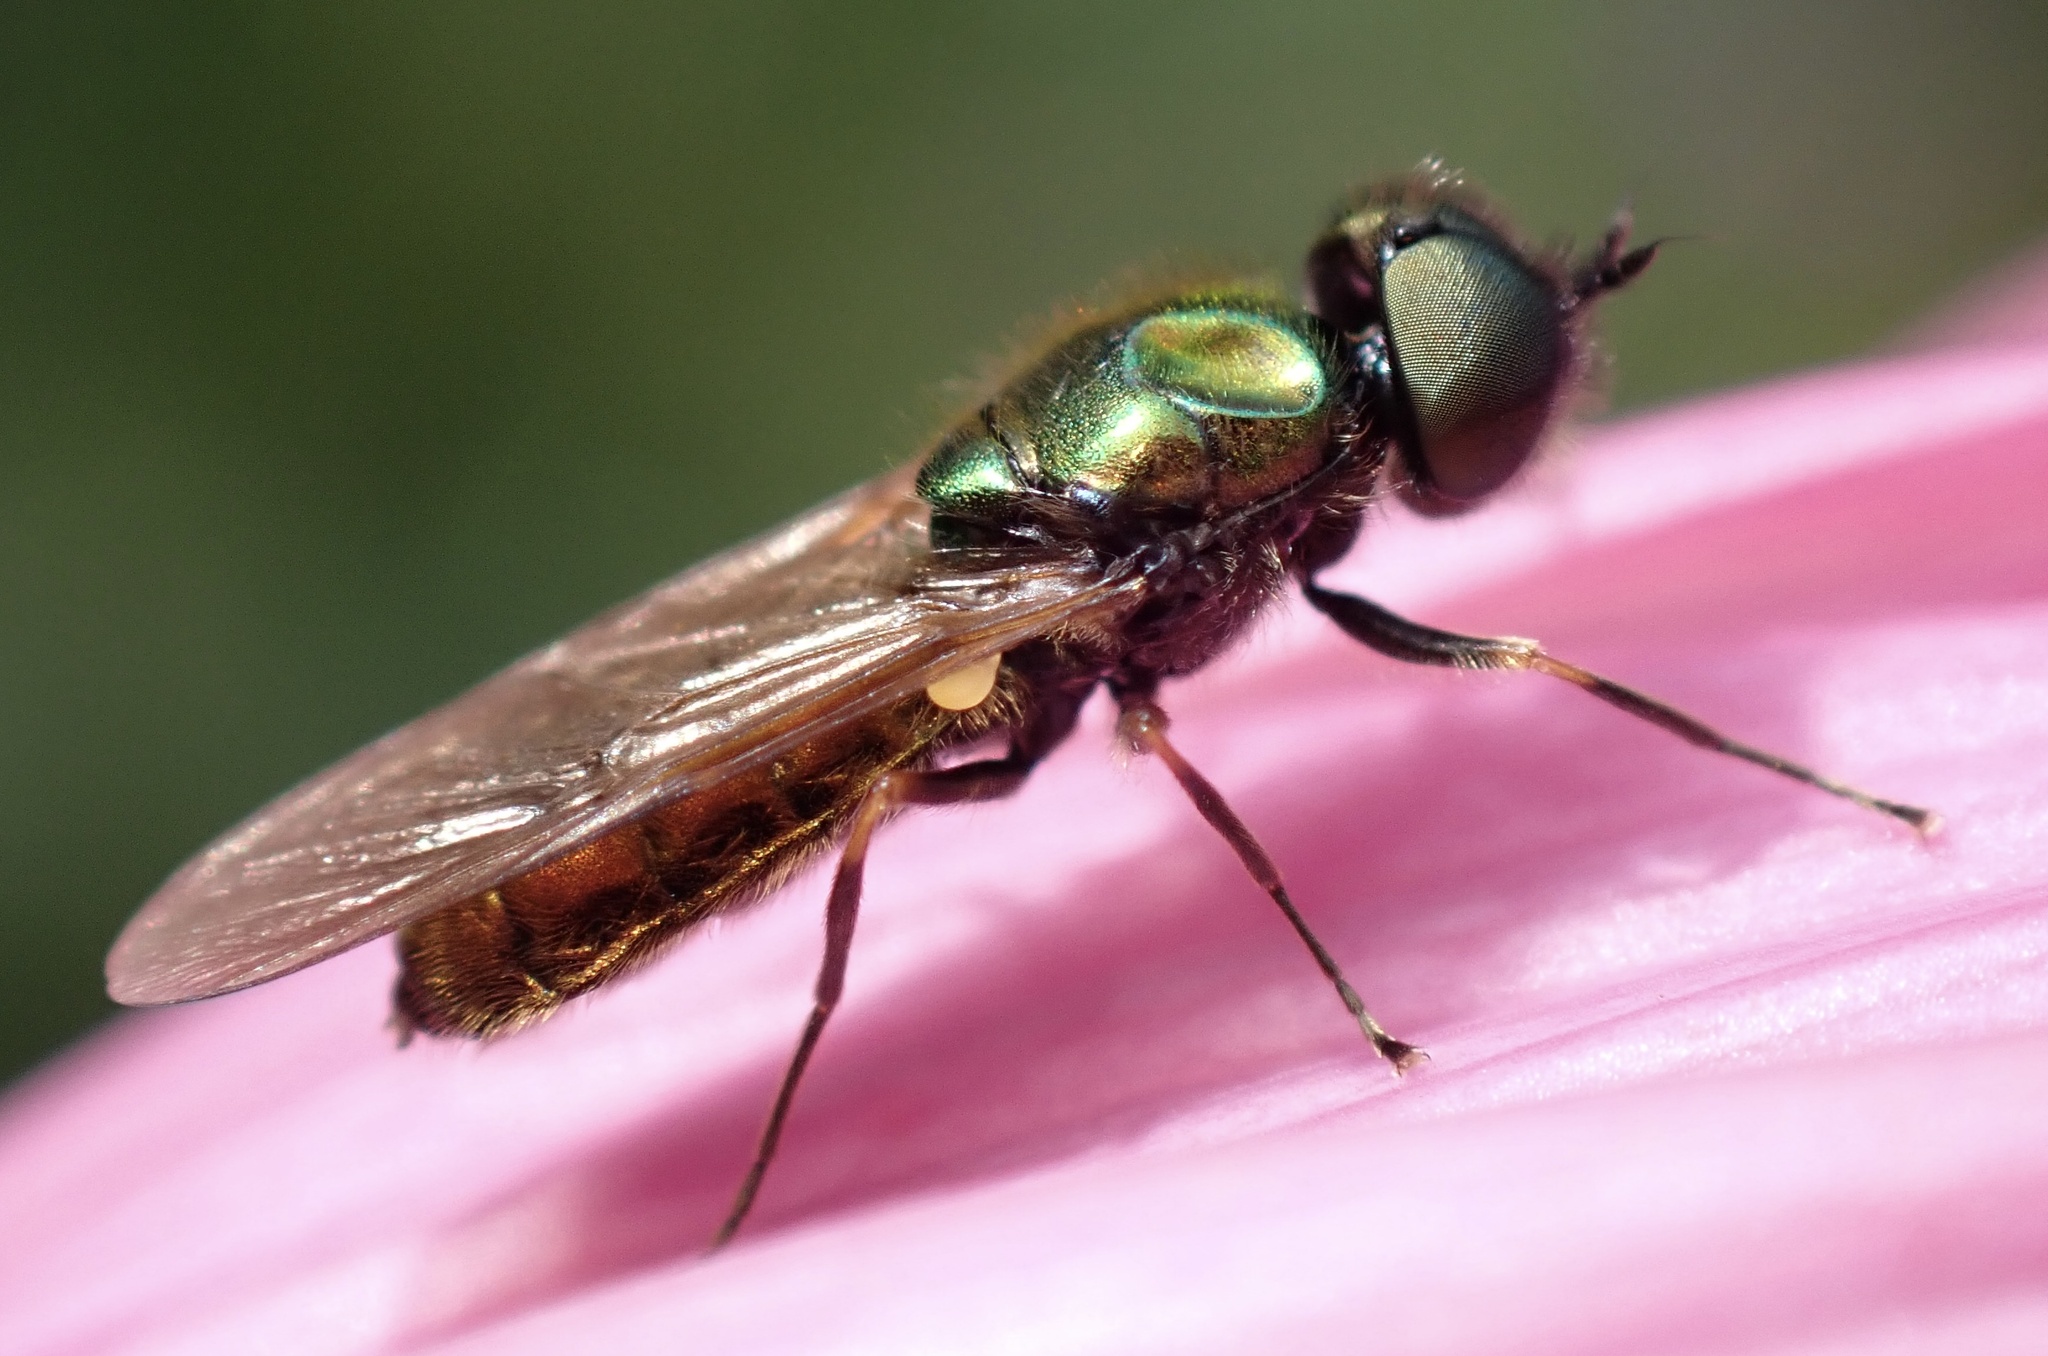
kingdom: Animalia
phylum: Arthropoda
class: Insecta
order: Diptera
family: Stratiomyidae
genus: Chloromyia
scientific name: Chloromyia formosa
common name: Soldier fly
